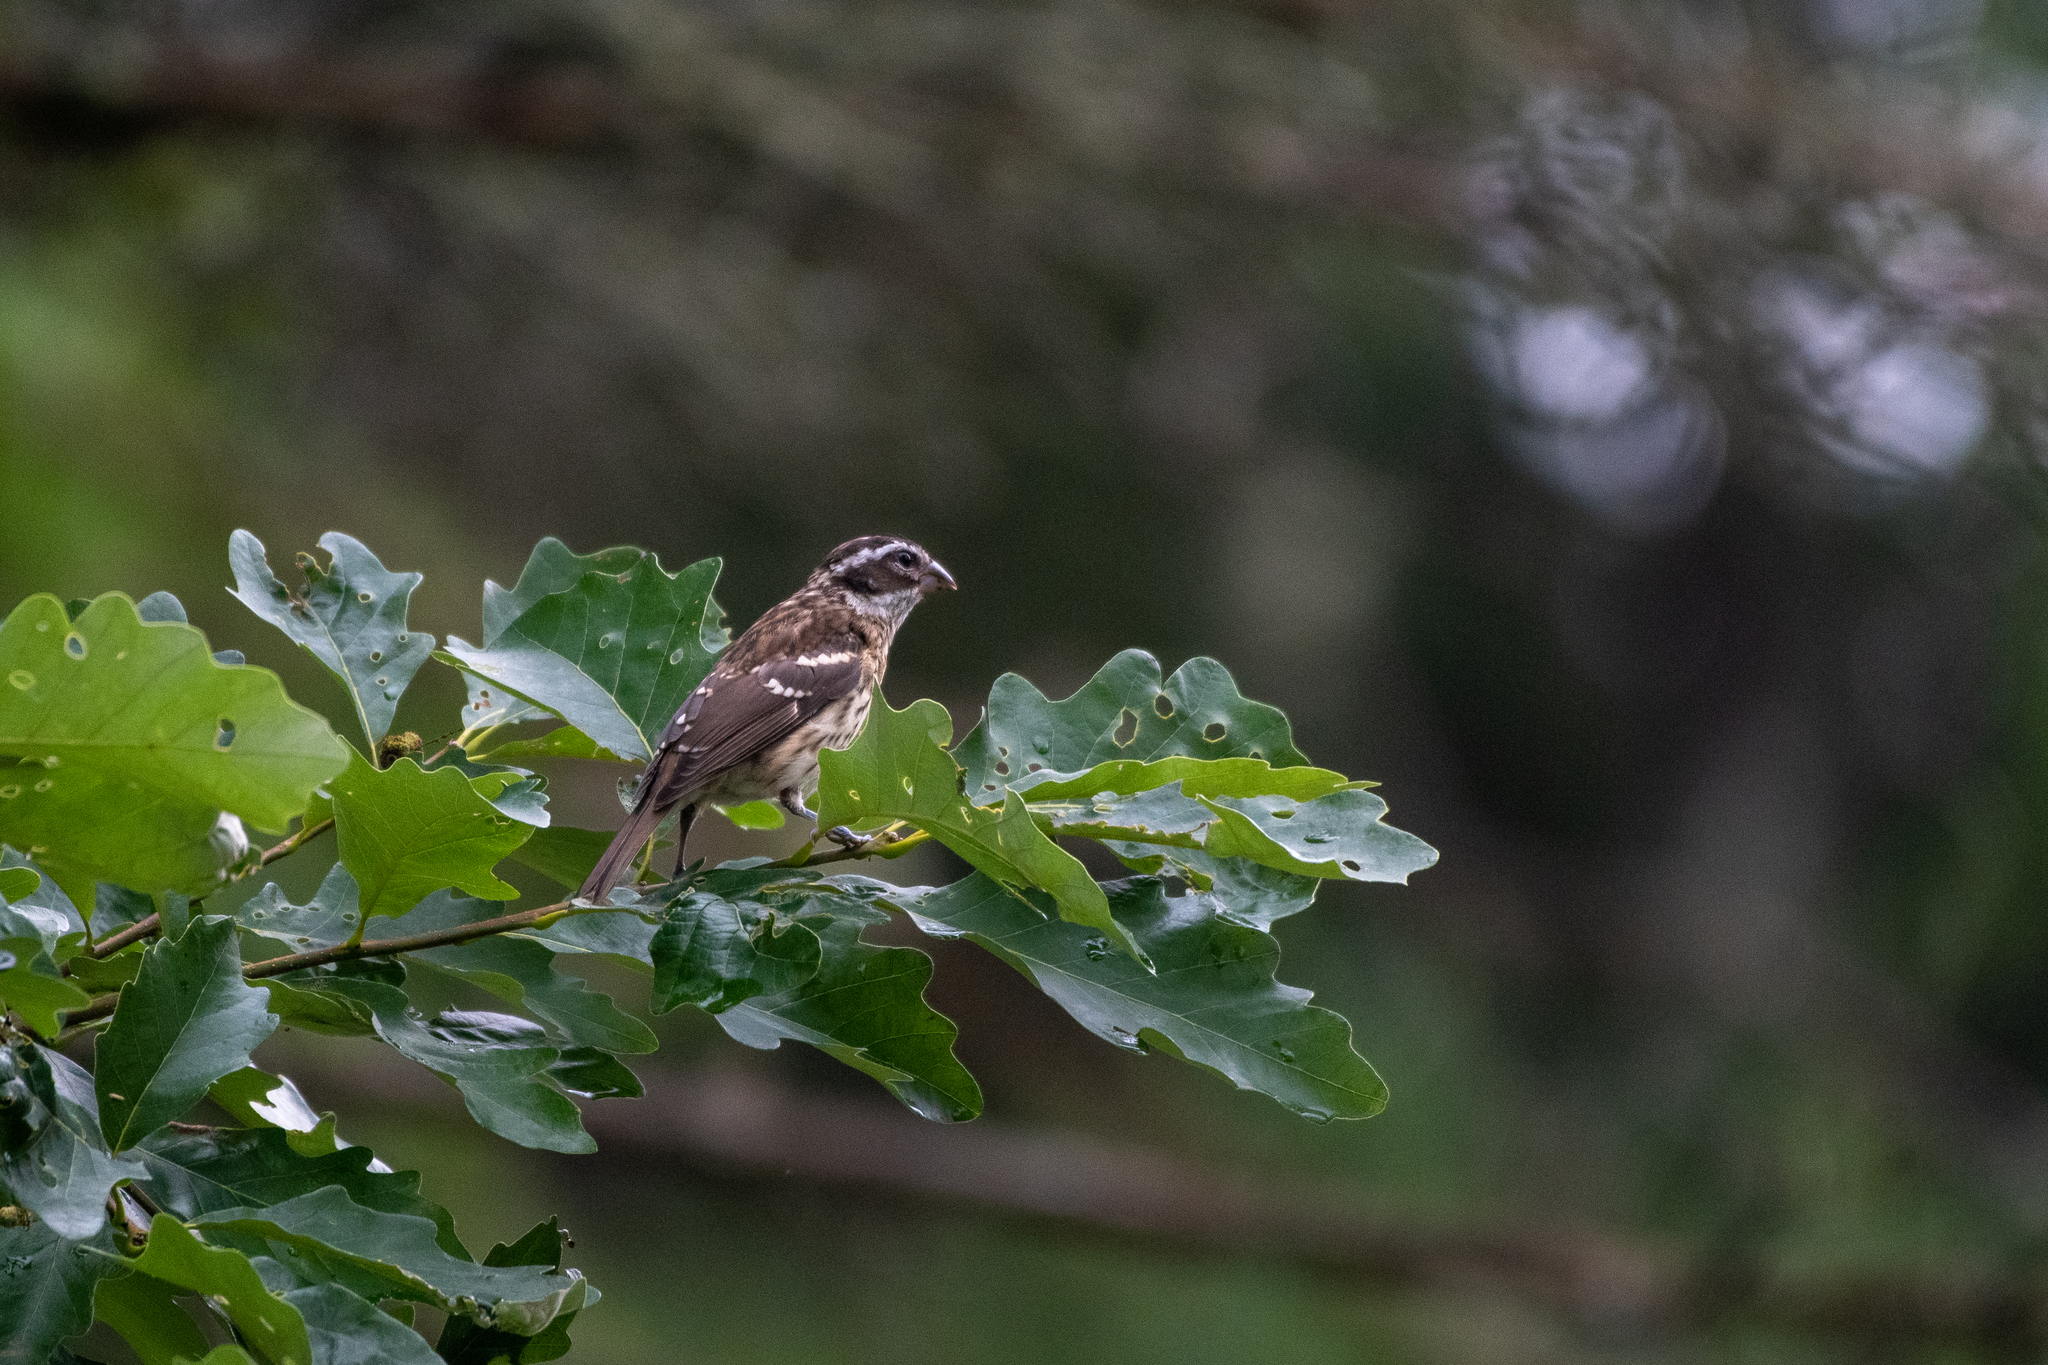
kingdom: Animalia
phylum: Chordata
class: Aves
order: Passeriformes
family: Cardinalidae
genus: Pheucticus
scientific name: Pheucticus ludovicianus
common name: Rose-breasted grosbeak
